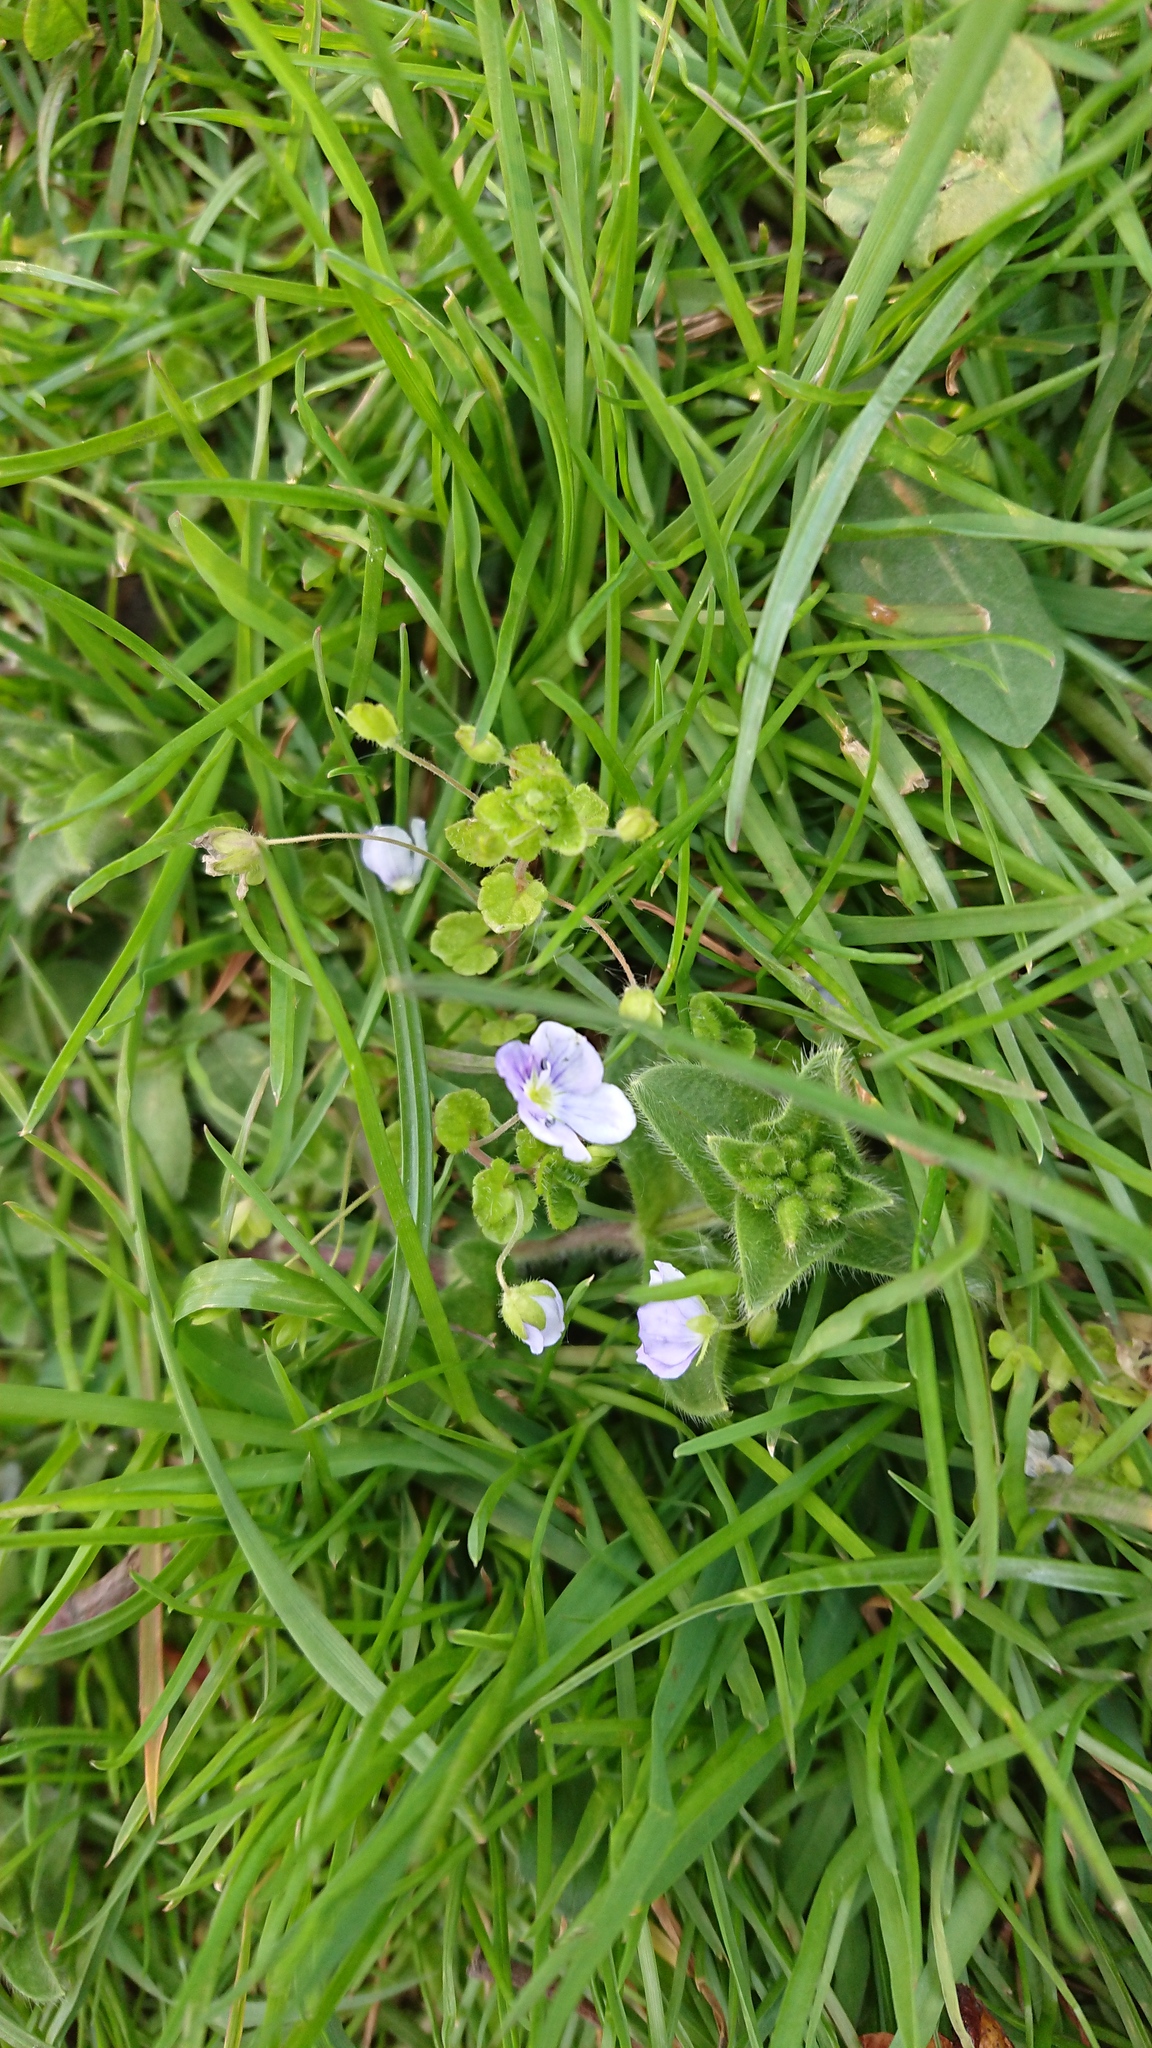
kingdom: Plantae
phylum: Tracheophyta
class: Magnoliopsida
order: Lamiales
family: Plantaginaceae
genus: Veronica
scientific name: Veronica filiformis
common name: Slender speedwell
